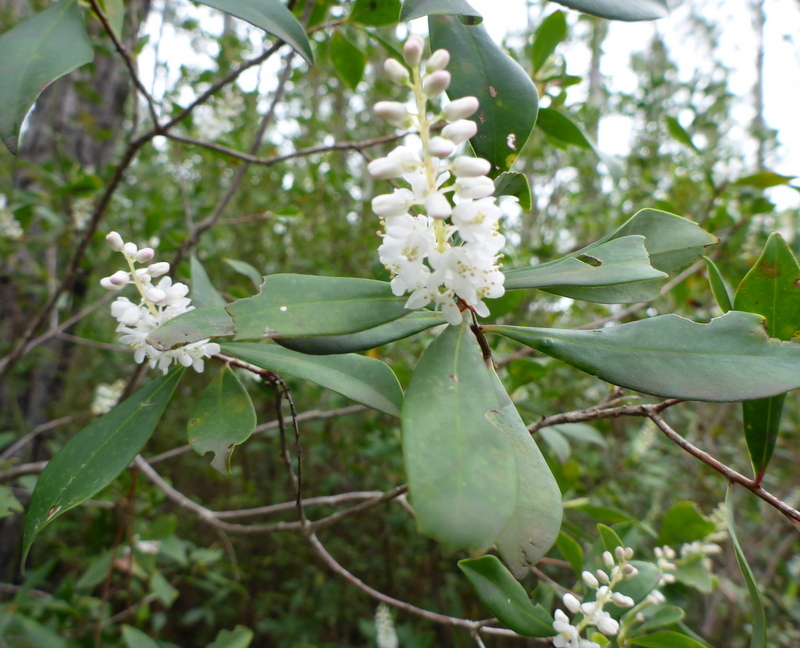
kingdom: Plantae
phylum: Tracheophyta
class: Magnoliopsida
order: Ericales
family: Cyrillaceae
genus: Cliftonia
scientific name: Cliftonia monophylla
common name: Titi
